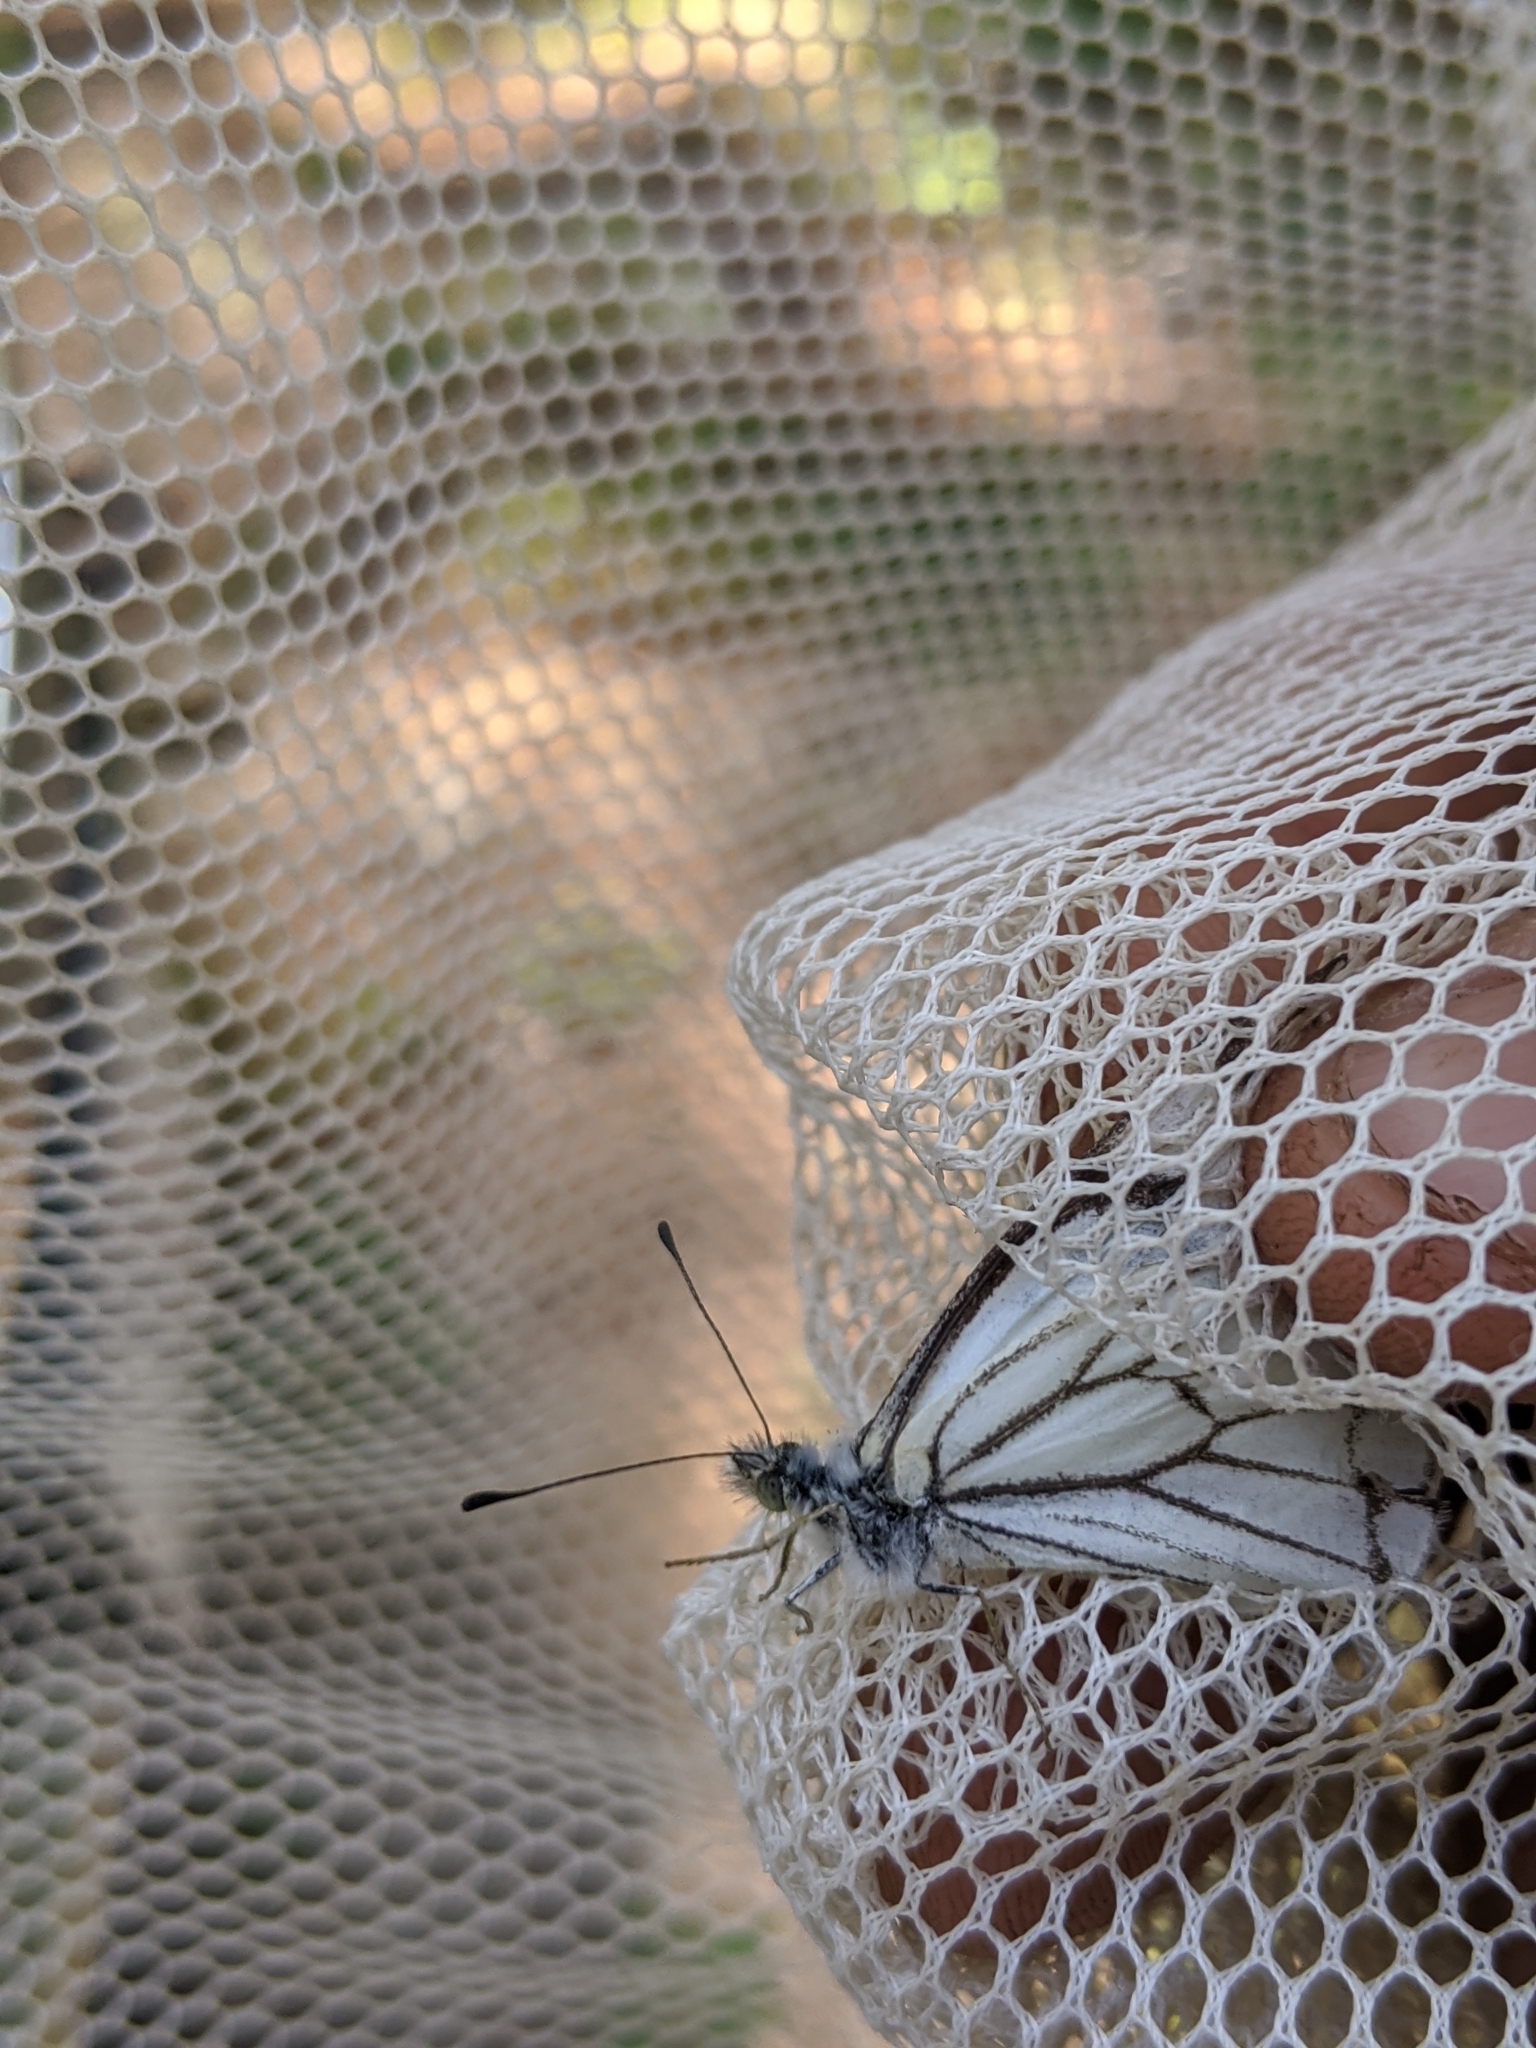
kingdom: Animalia
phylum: Arthropoda
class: Insecta
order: Lepidoptera
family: Pieridae
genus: Neophasia
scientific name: Neophasia menapia
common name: Pine white
